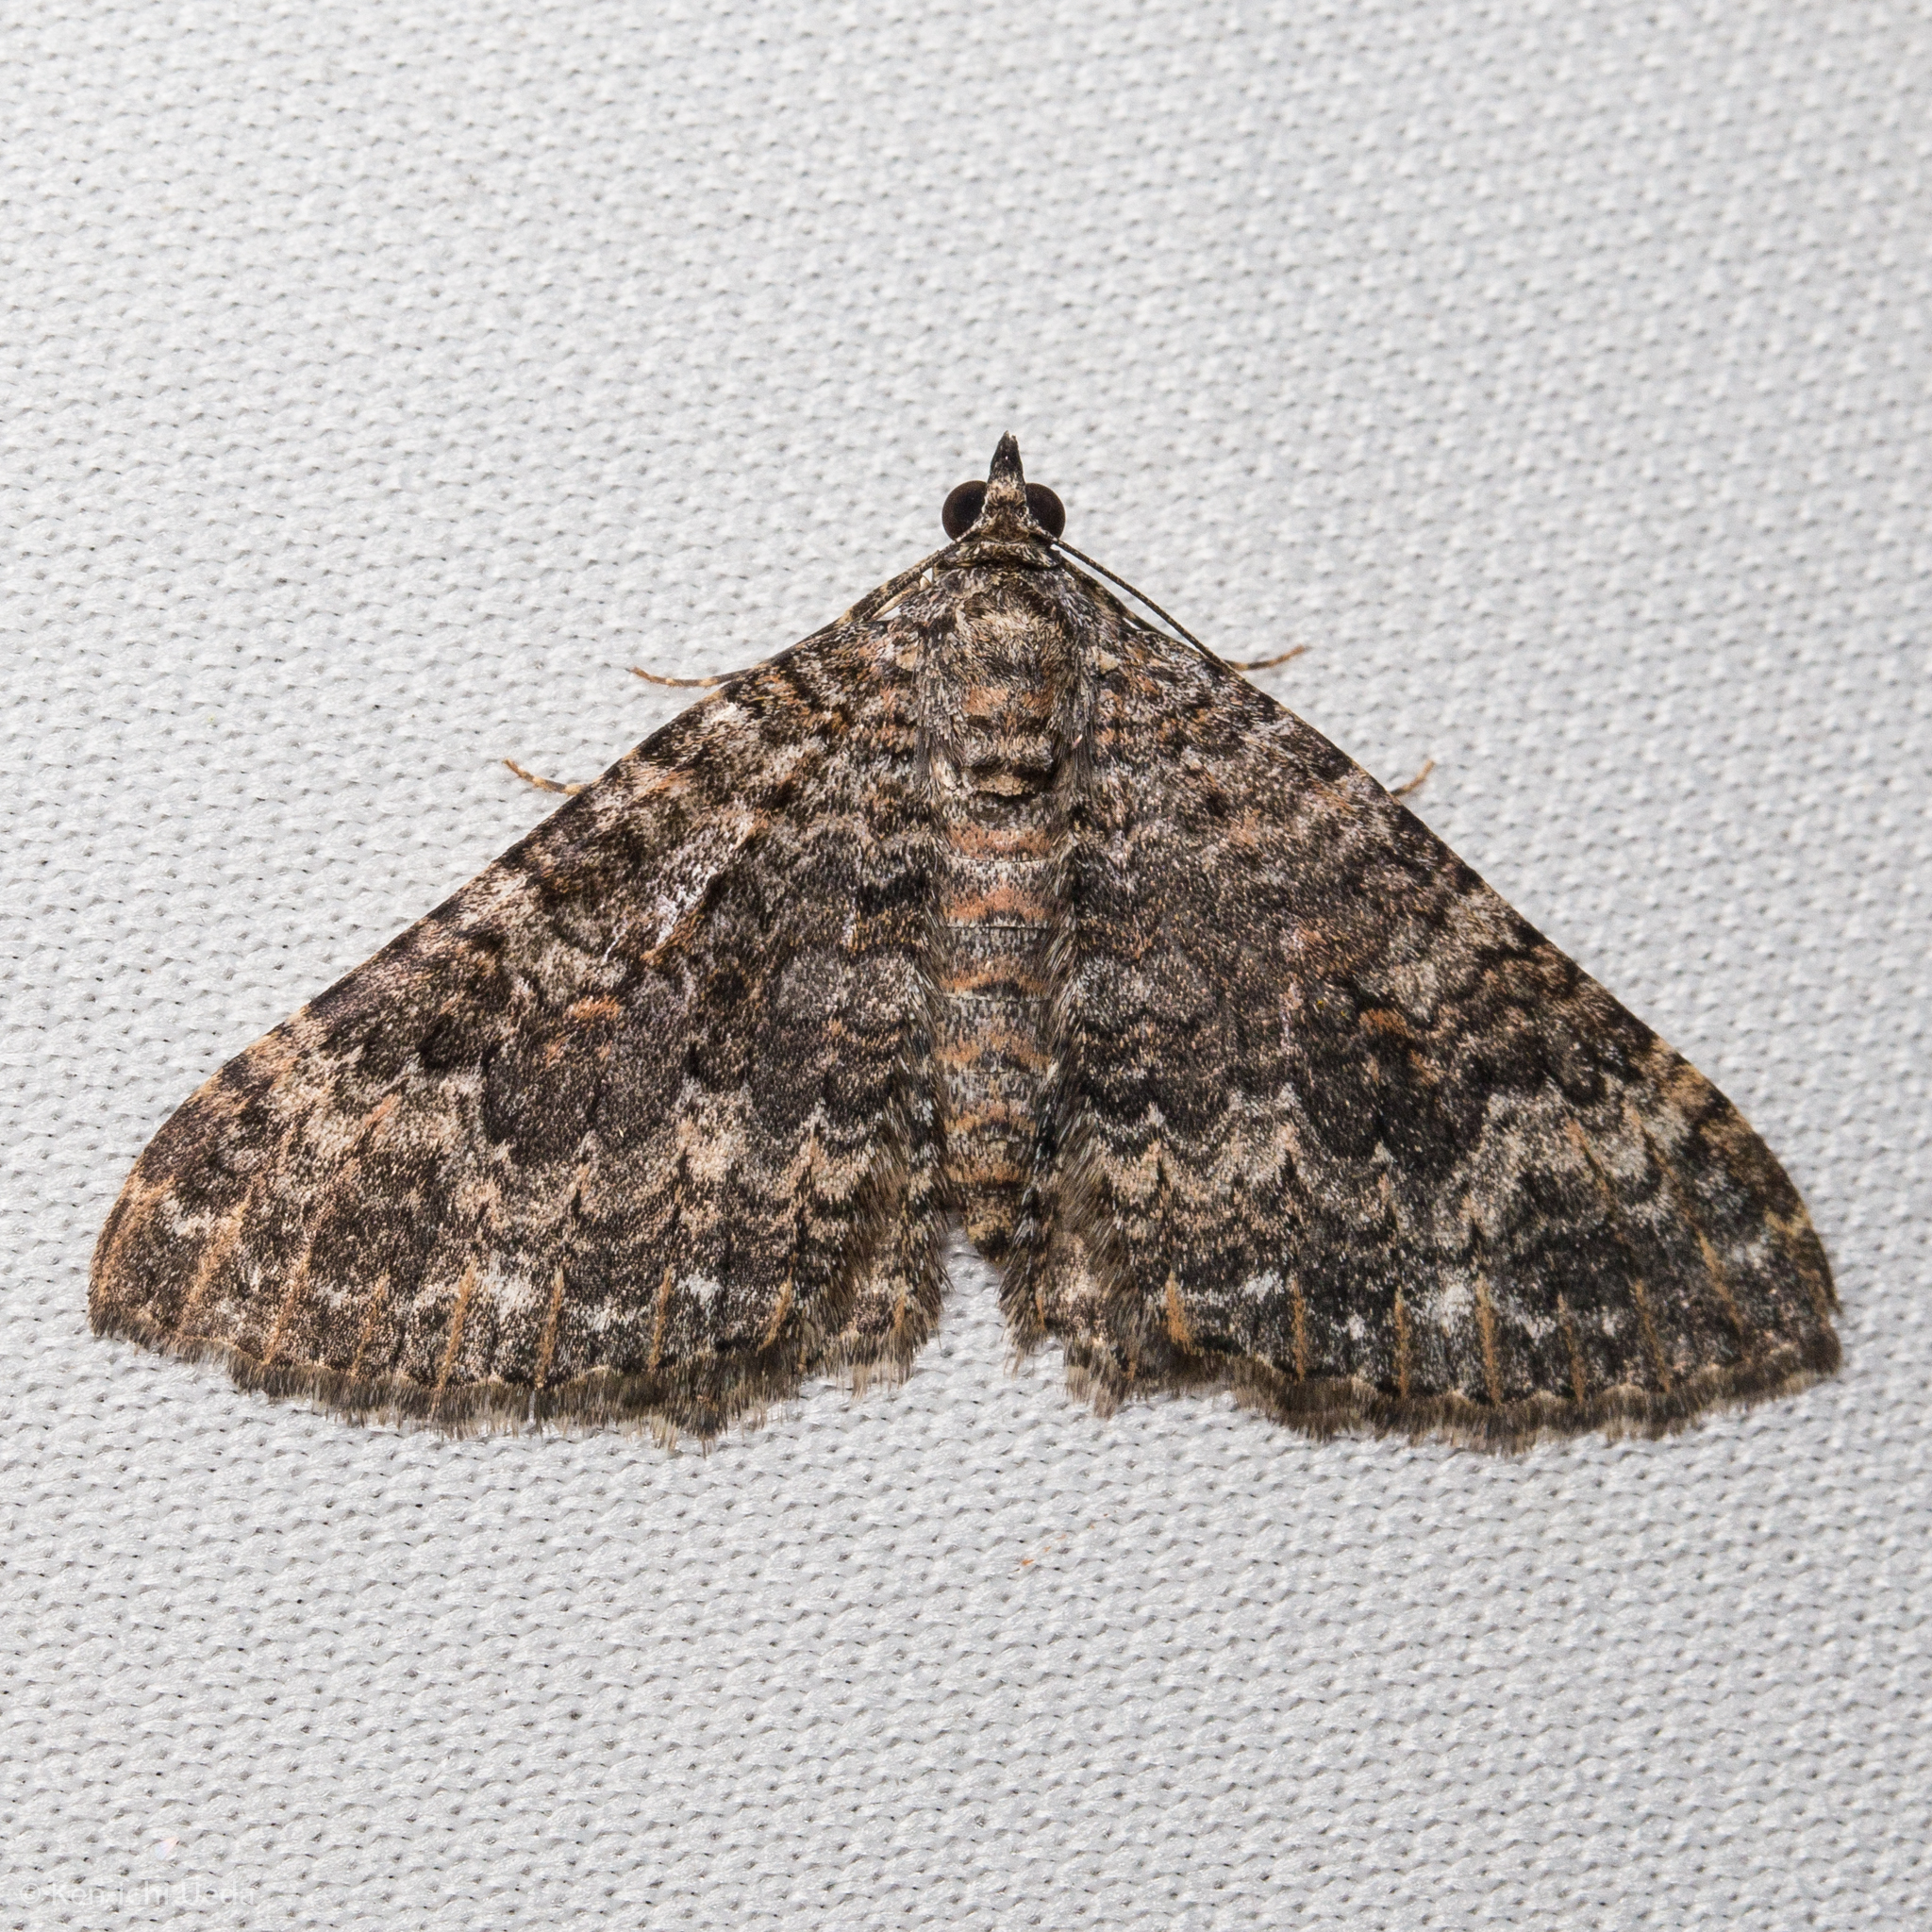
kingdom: Animalia
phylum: Arthropoda
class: Insecta
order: Lepidoptera
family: Geometridae
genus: Archirhoe
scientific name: Archirhoe neomexicana
